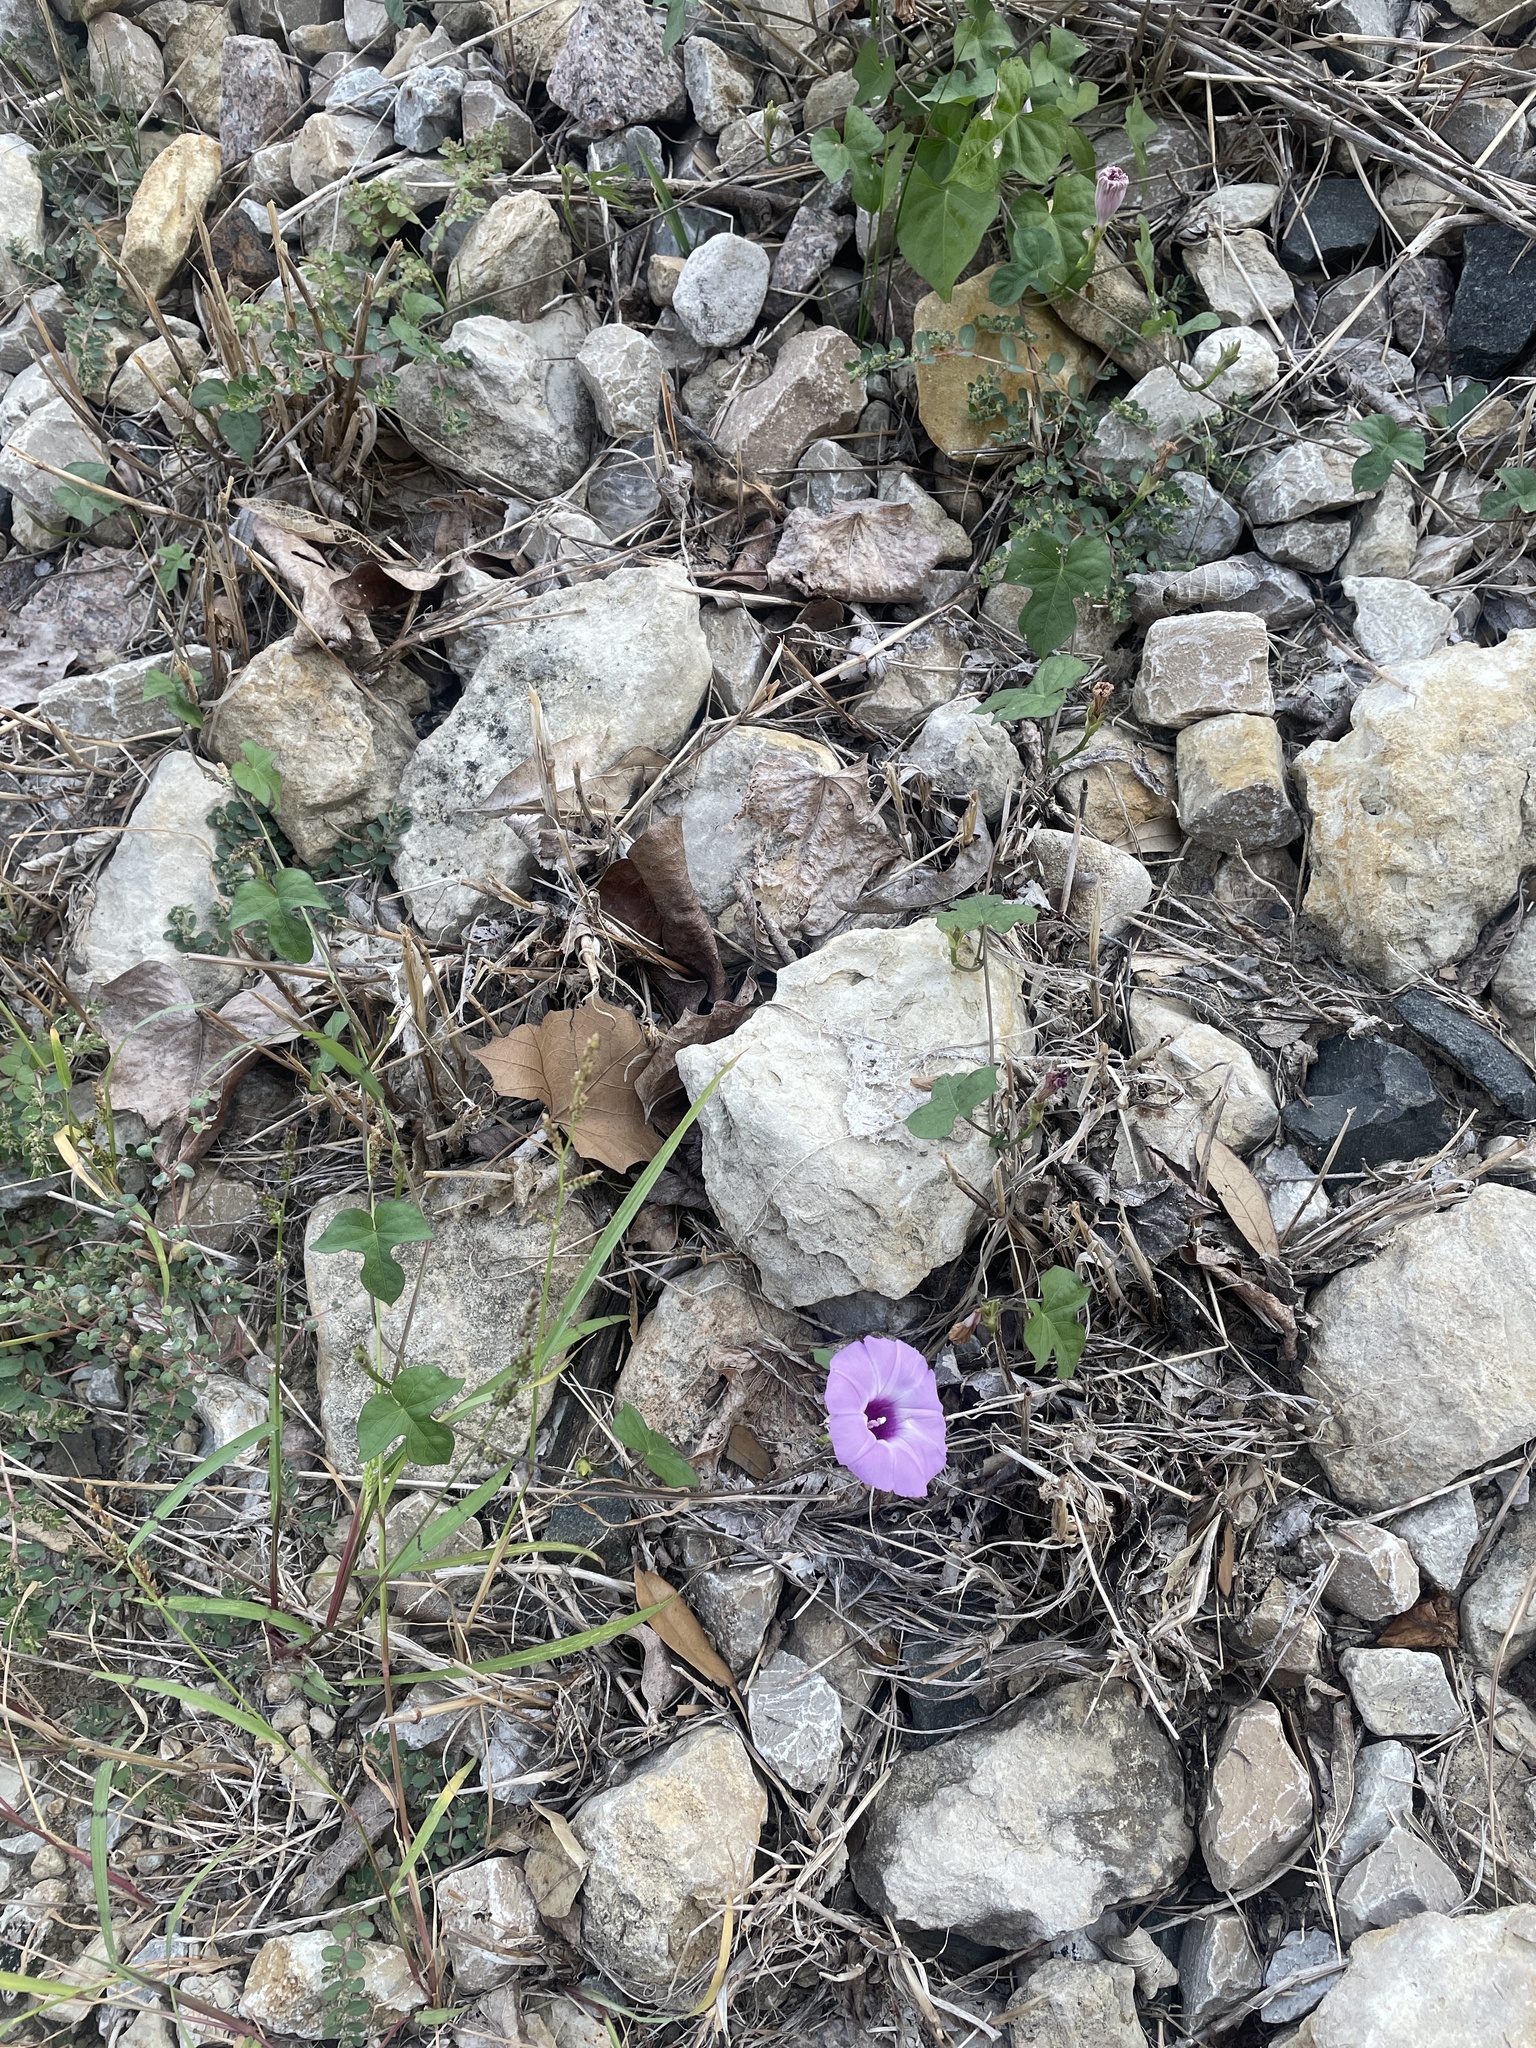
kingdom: Plantae
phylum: Tracheophyta
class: Magnoliopsida
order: Solanales
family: Convolvulaceae
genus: Ipomoea
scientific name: Ipomoea cordatotriloba
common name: Cotton morning glory
